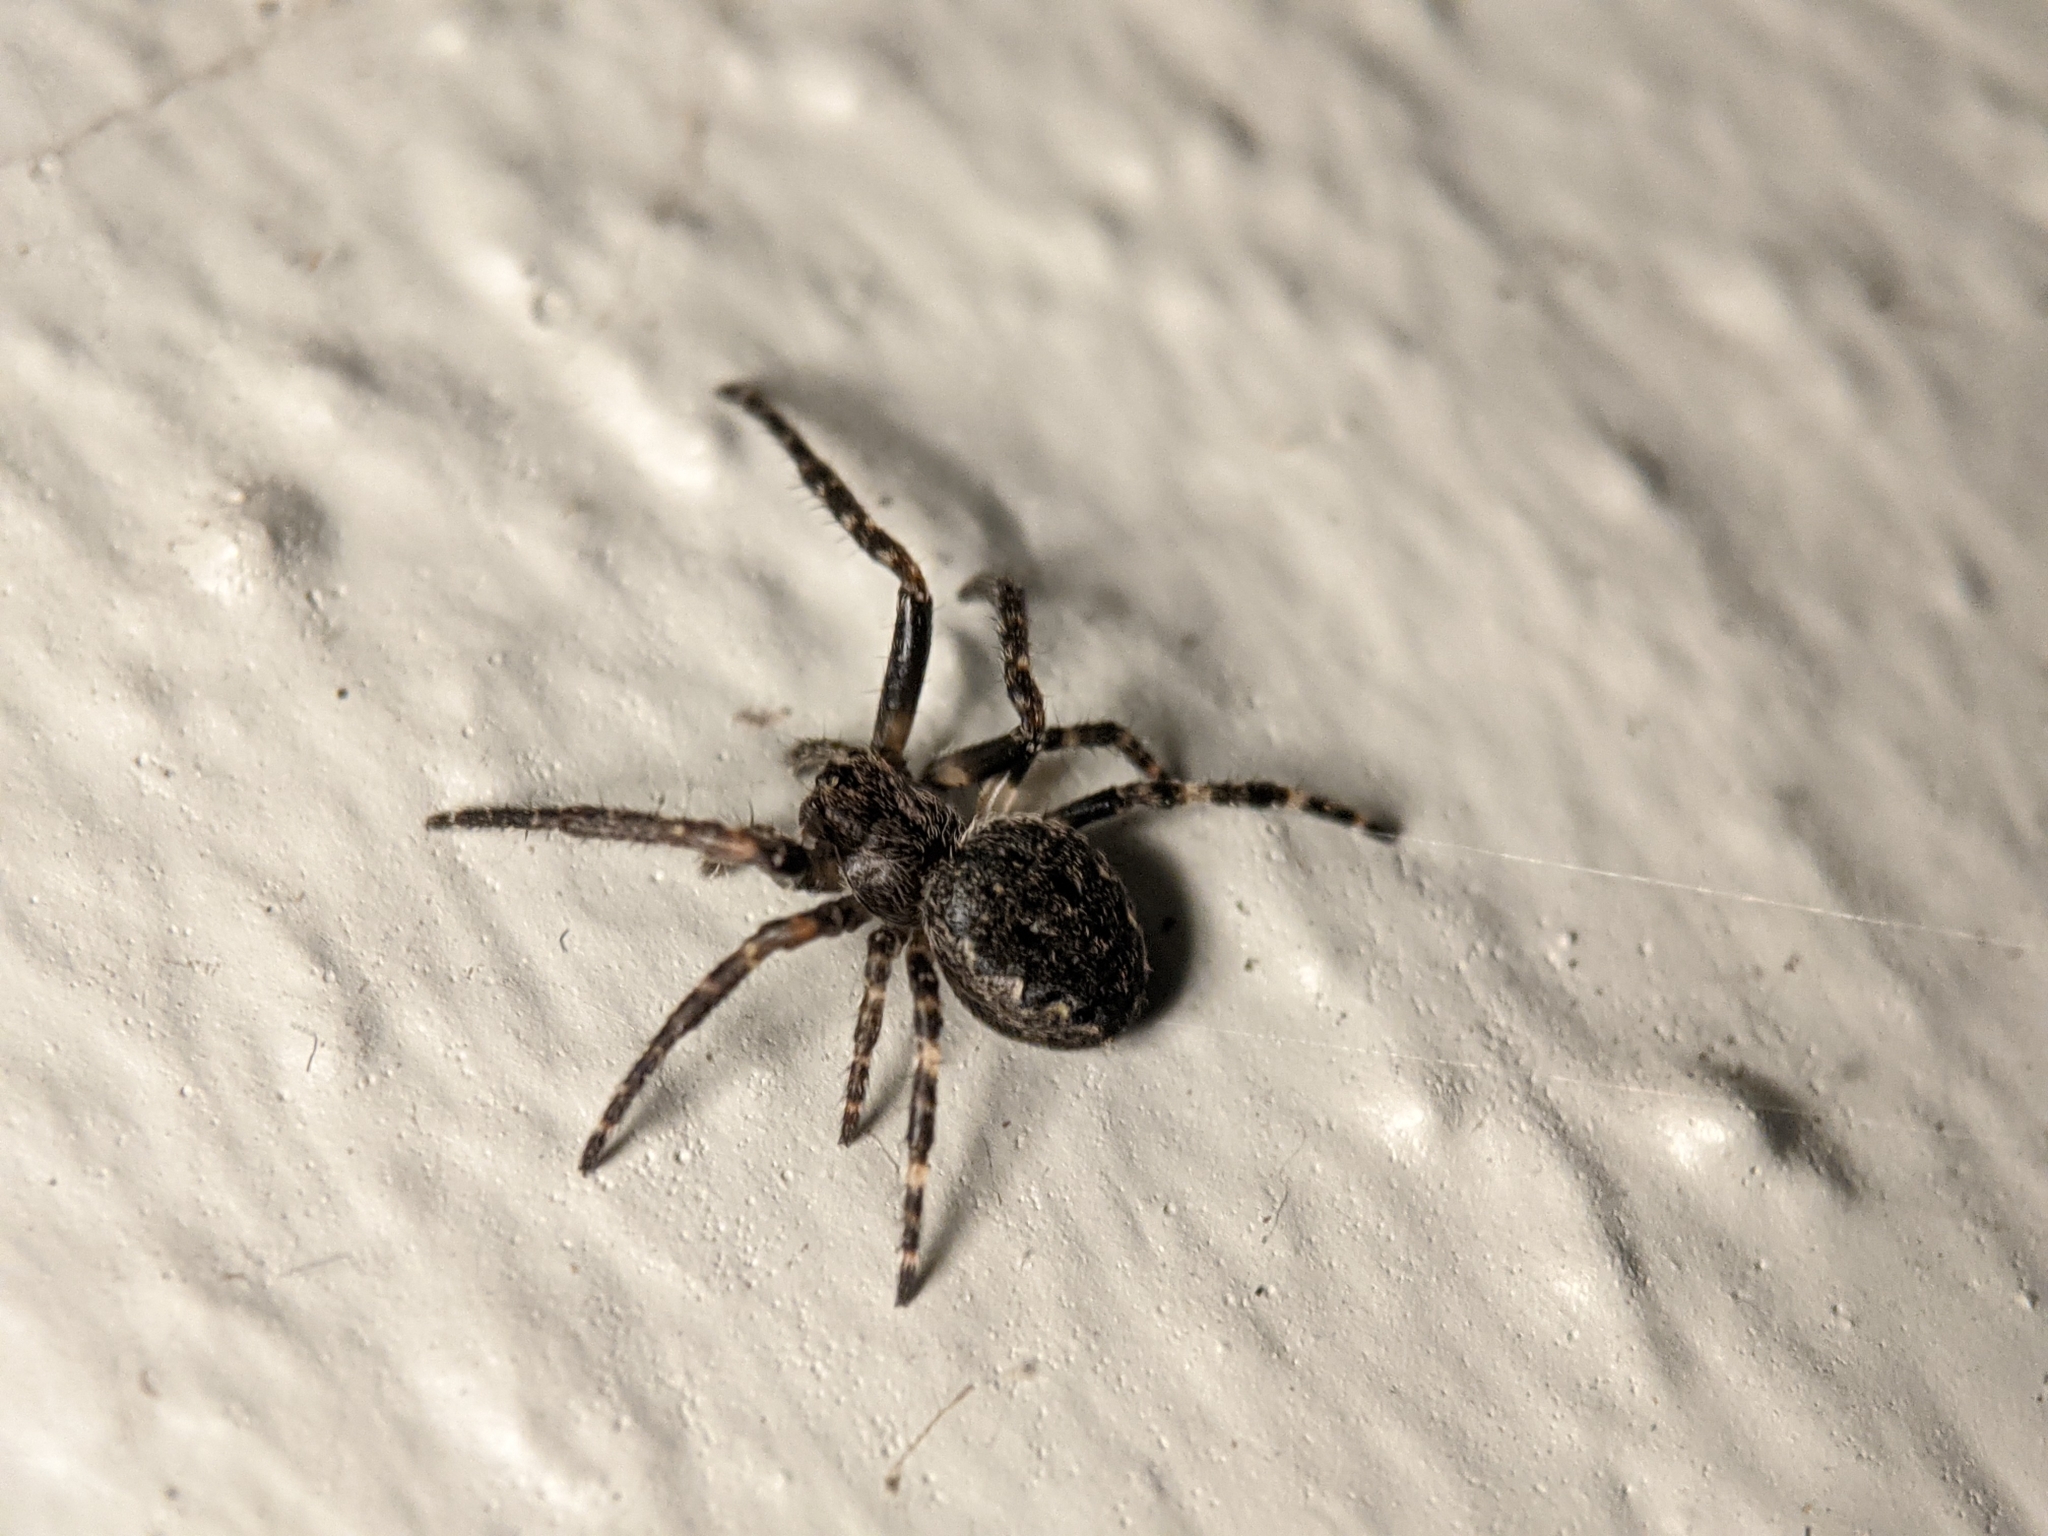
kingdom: Animalia
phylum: Arthropoda
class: Arachnida
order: Araneae
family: Araneidae
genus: Nuctenea
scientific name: Nuctenea umbratica
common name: Toad spider
